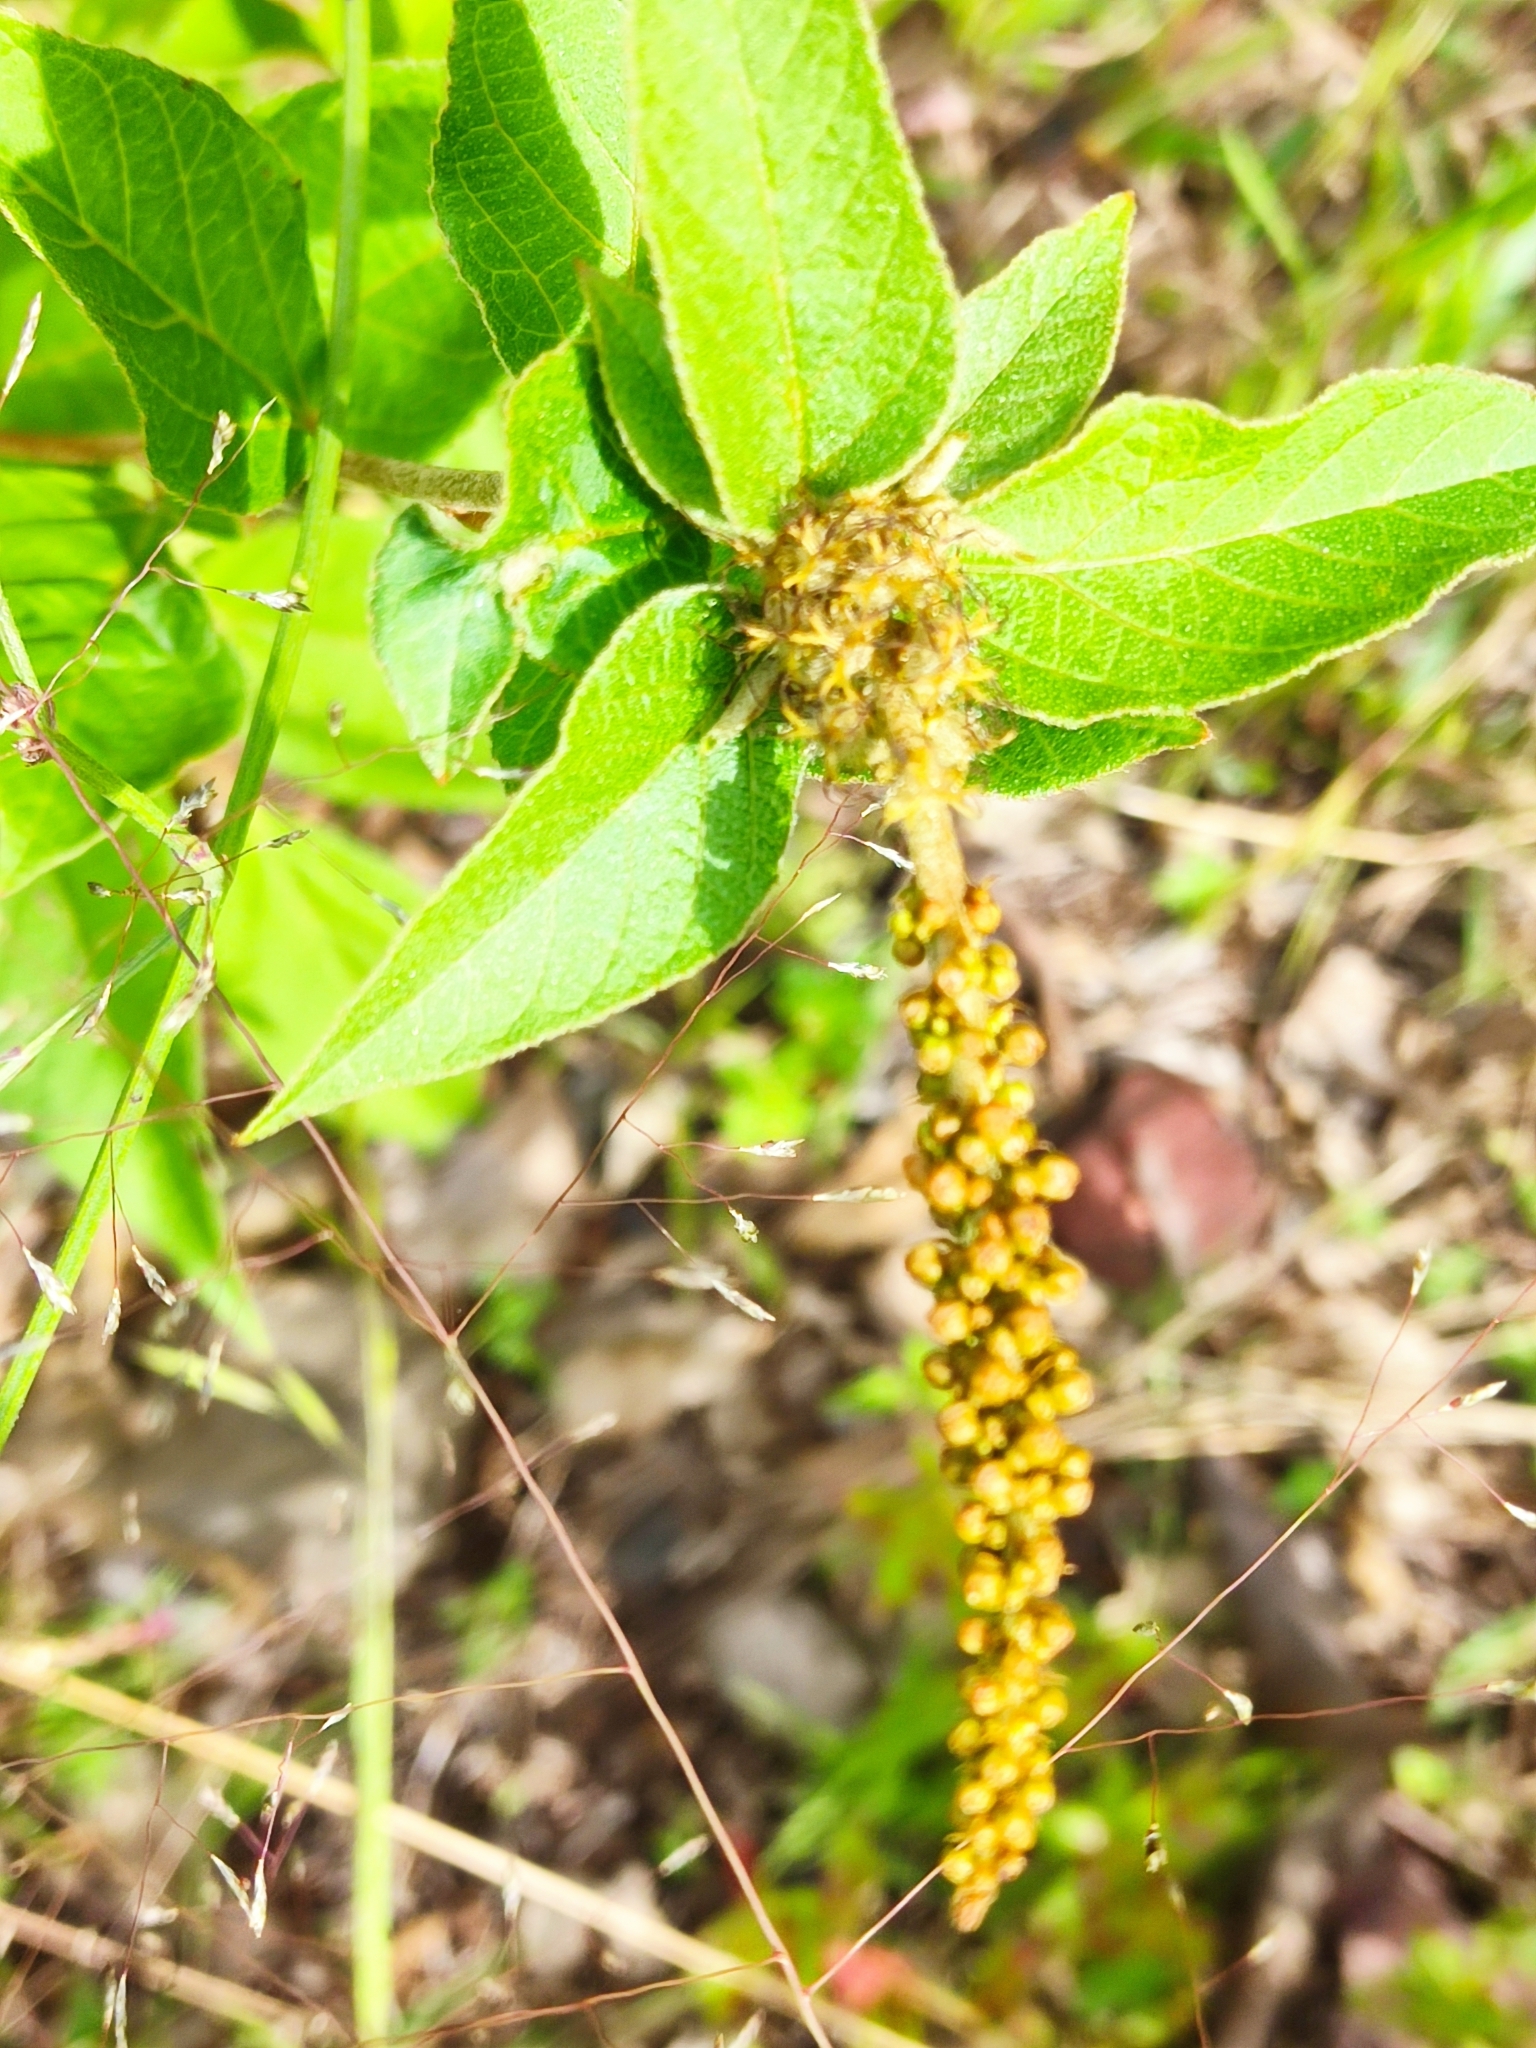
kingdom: Plantae
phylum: Tracheophyta
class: Magnoliopsida
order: Malpighiales
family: Euphorbiaceae
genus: Croton
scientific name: Croton adspersus
